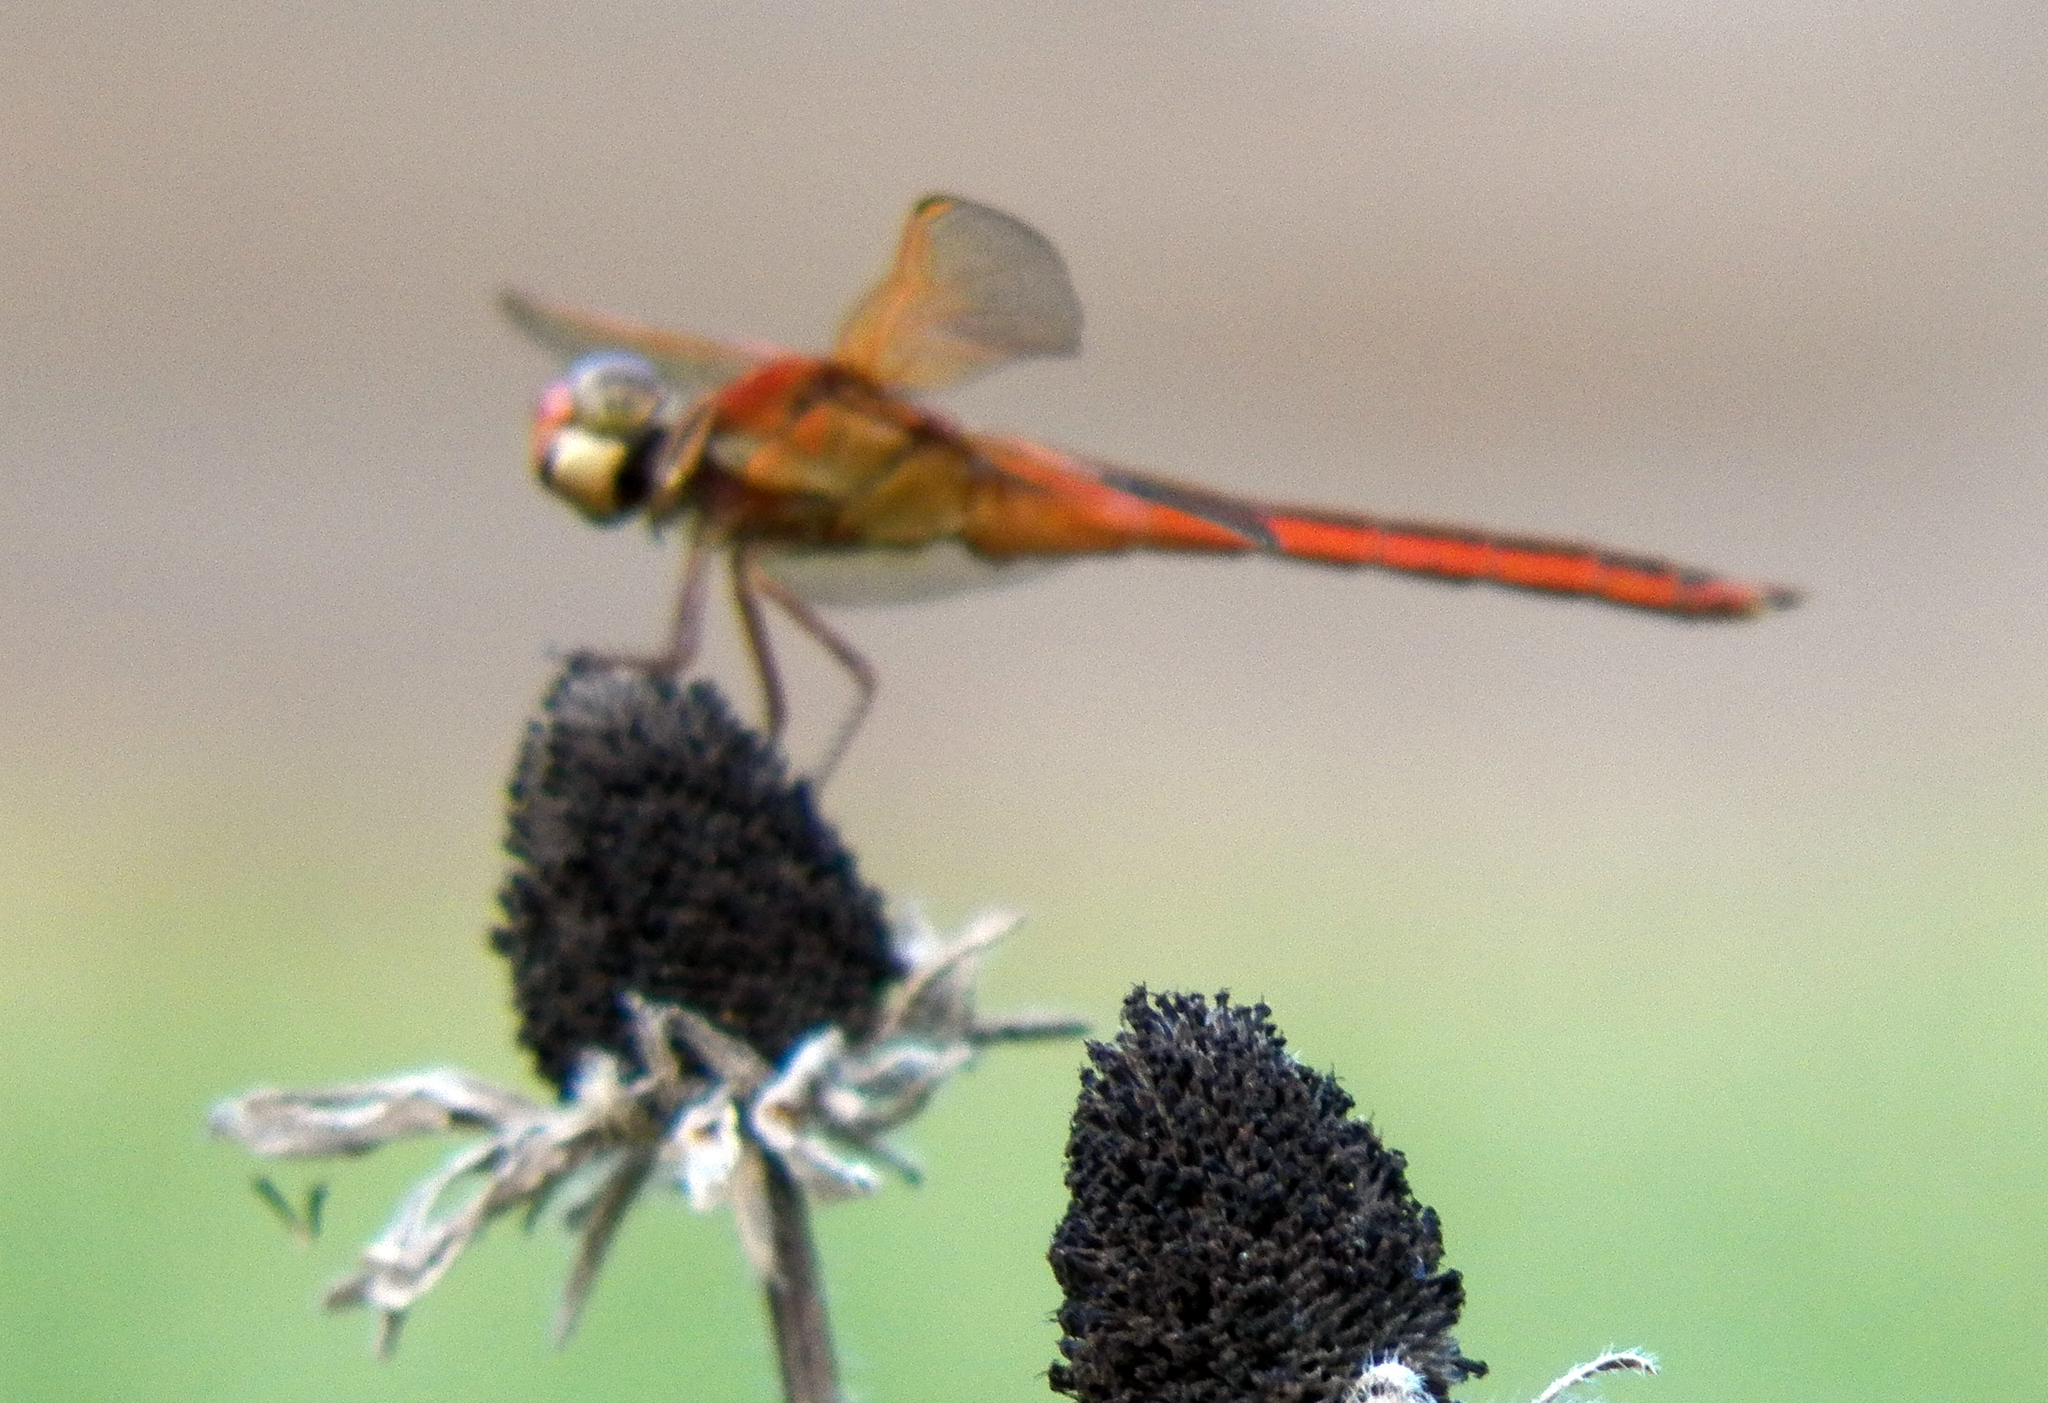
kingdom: Animalia
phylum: Arthropoda
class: Insecta
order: Odonata
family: Libellulidae
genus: Libellula
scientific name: Libellula needhami
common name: Needham's skimmer
